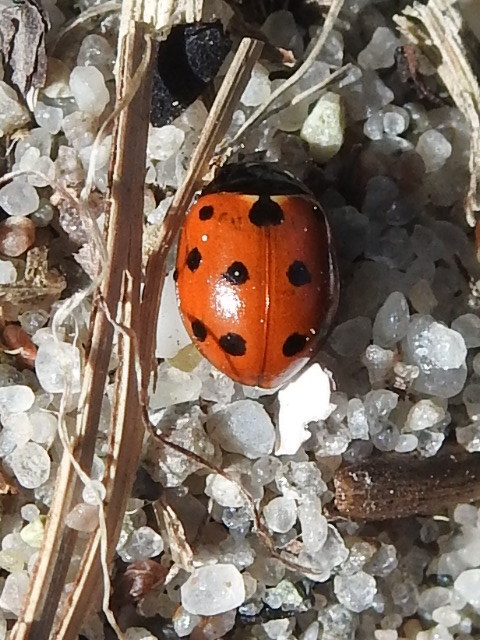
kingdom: Animalia
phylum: Arthropoda
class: Insecta
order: Coleoptera
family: Coccinellidae
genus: Coccinella
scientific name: Coccinella undecimpunctata
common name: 11-spot ladybird
